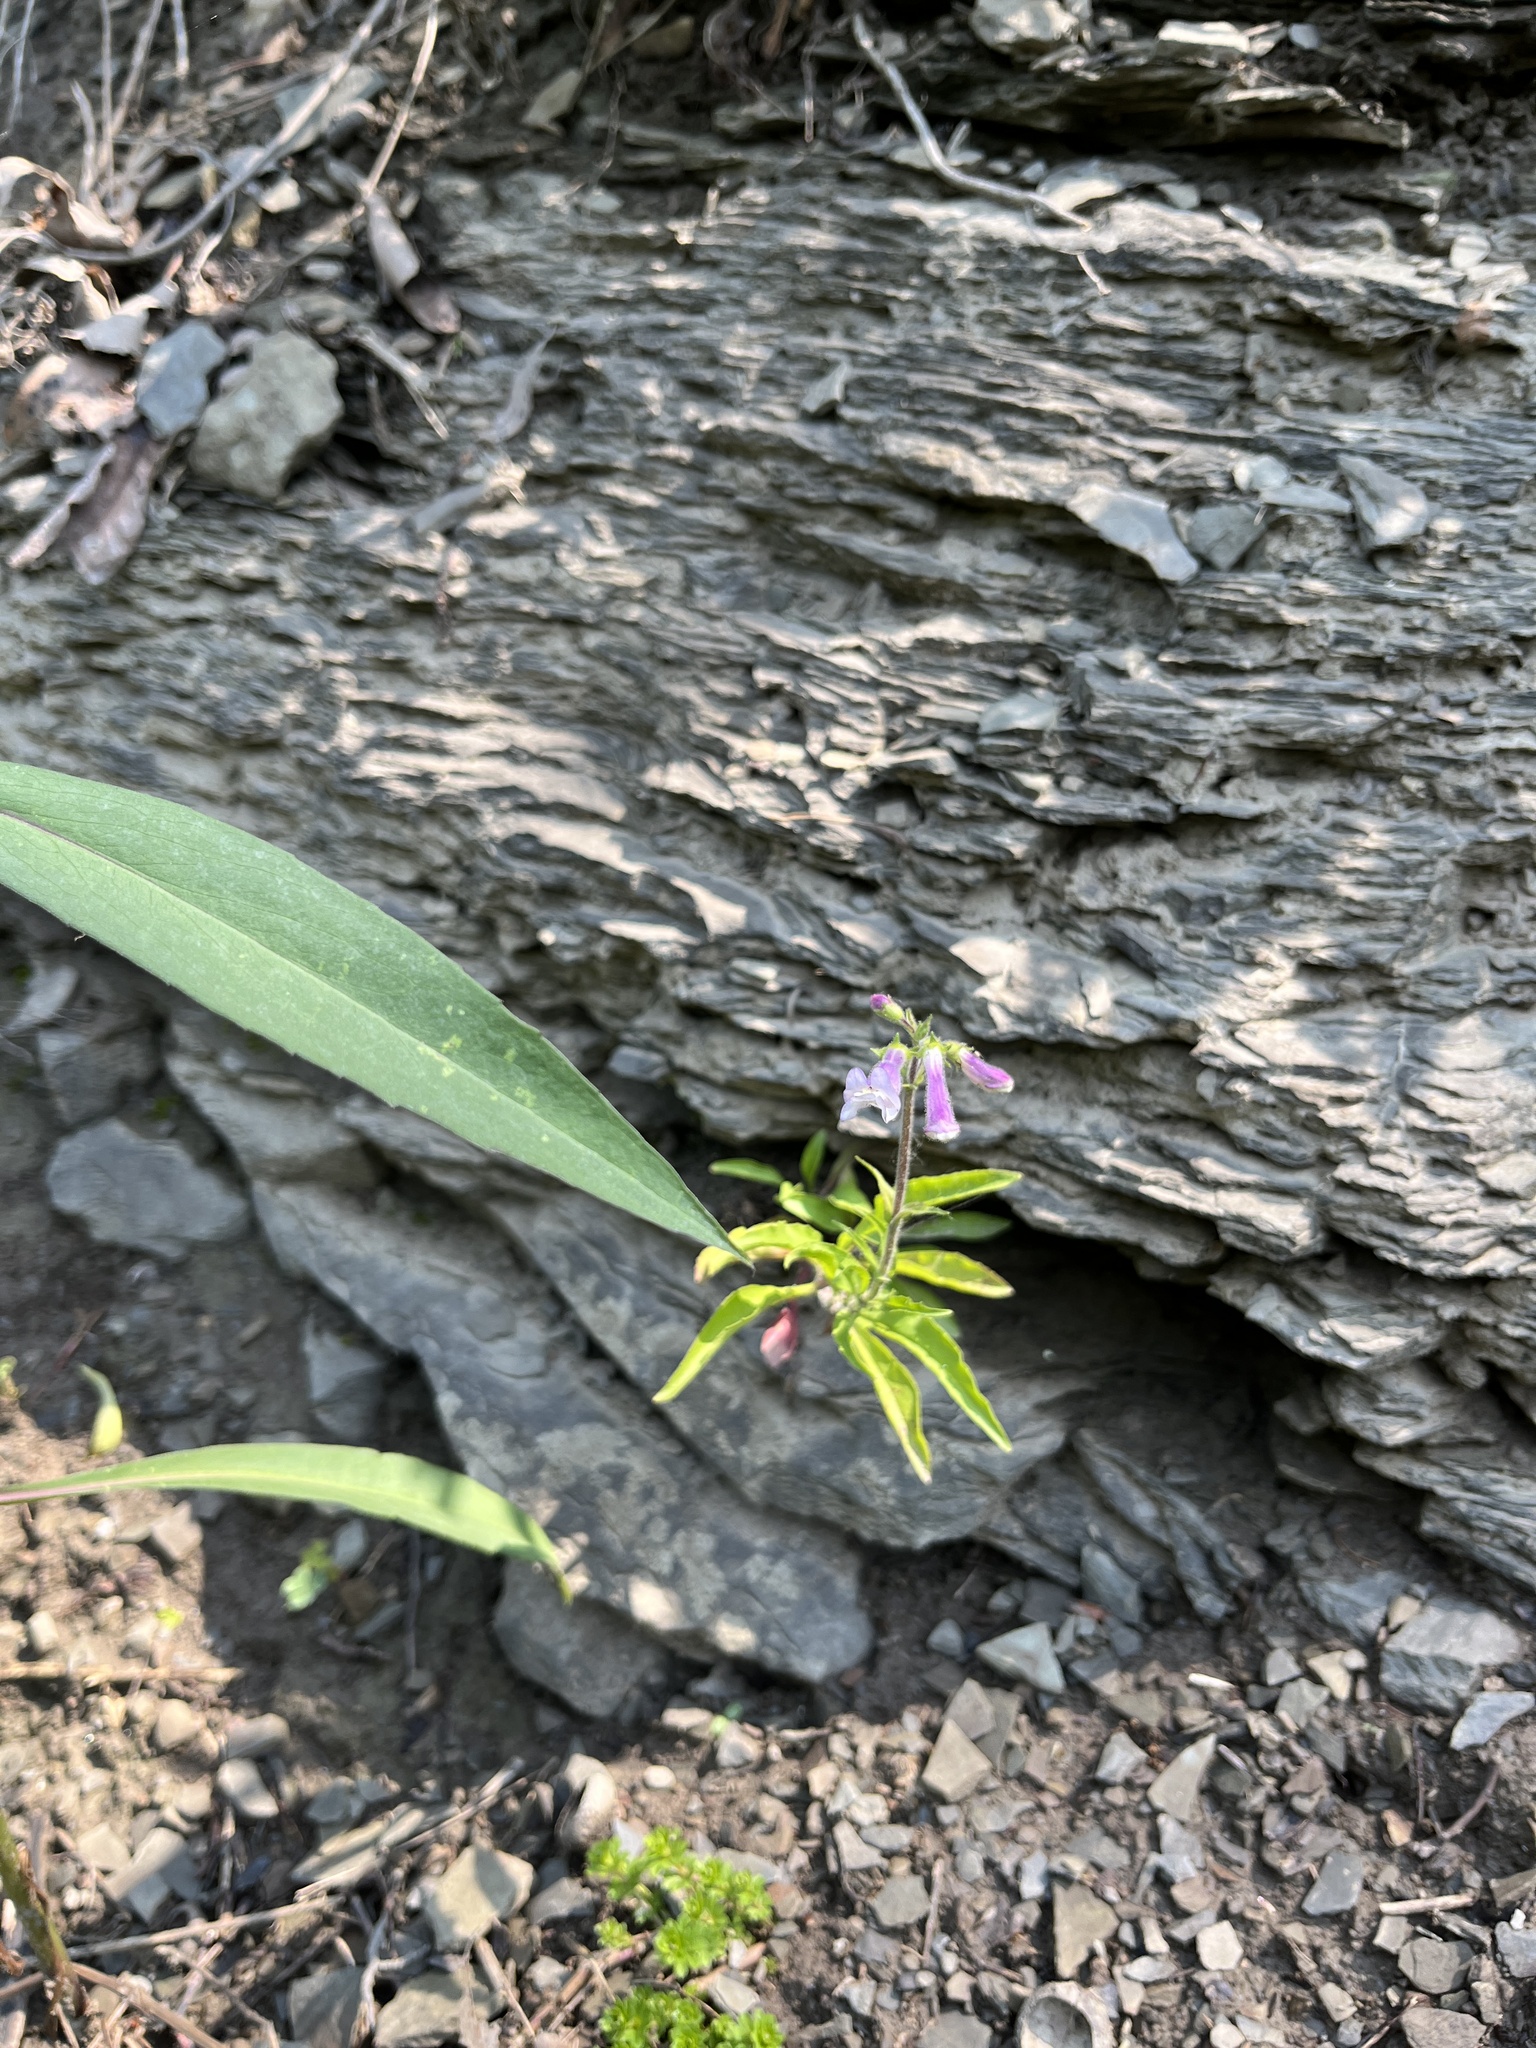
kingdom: Plantae
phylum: Tracheophyta
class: Magnoliopsida
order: Lamiales
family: Plantaginaceae
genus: Penstemon
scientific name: Penstemon hirsutus
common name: Hairy beardtongue
